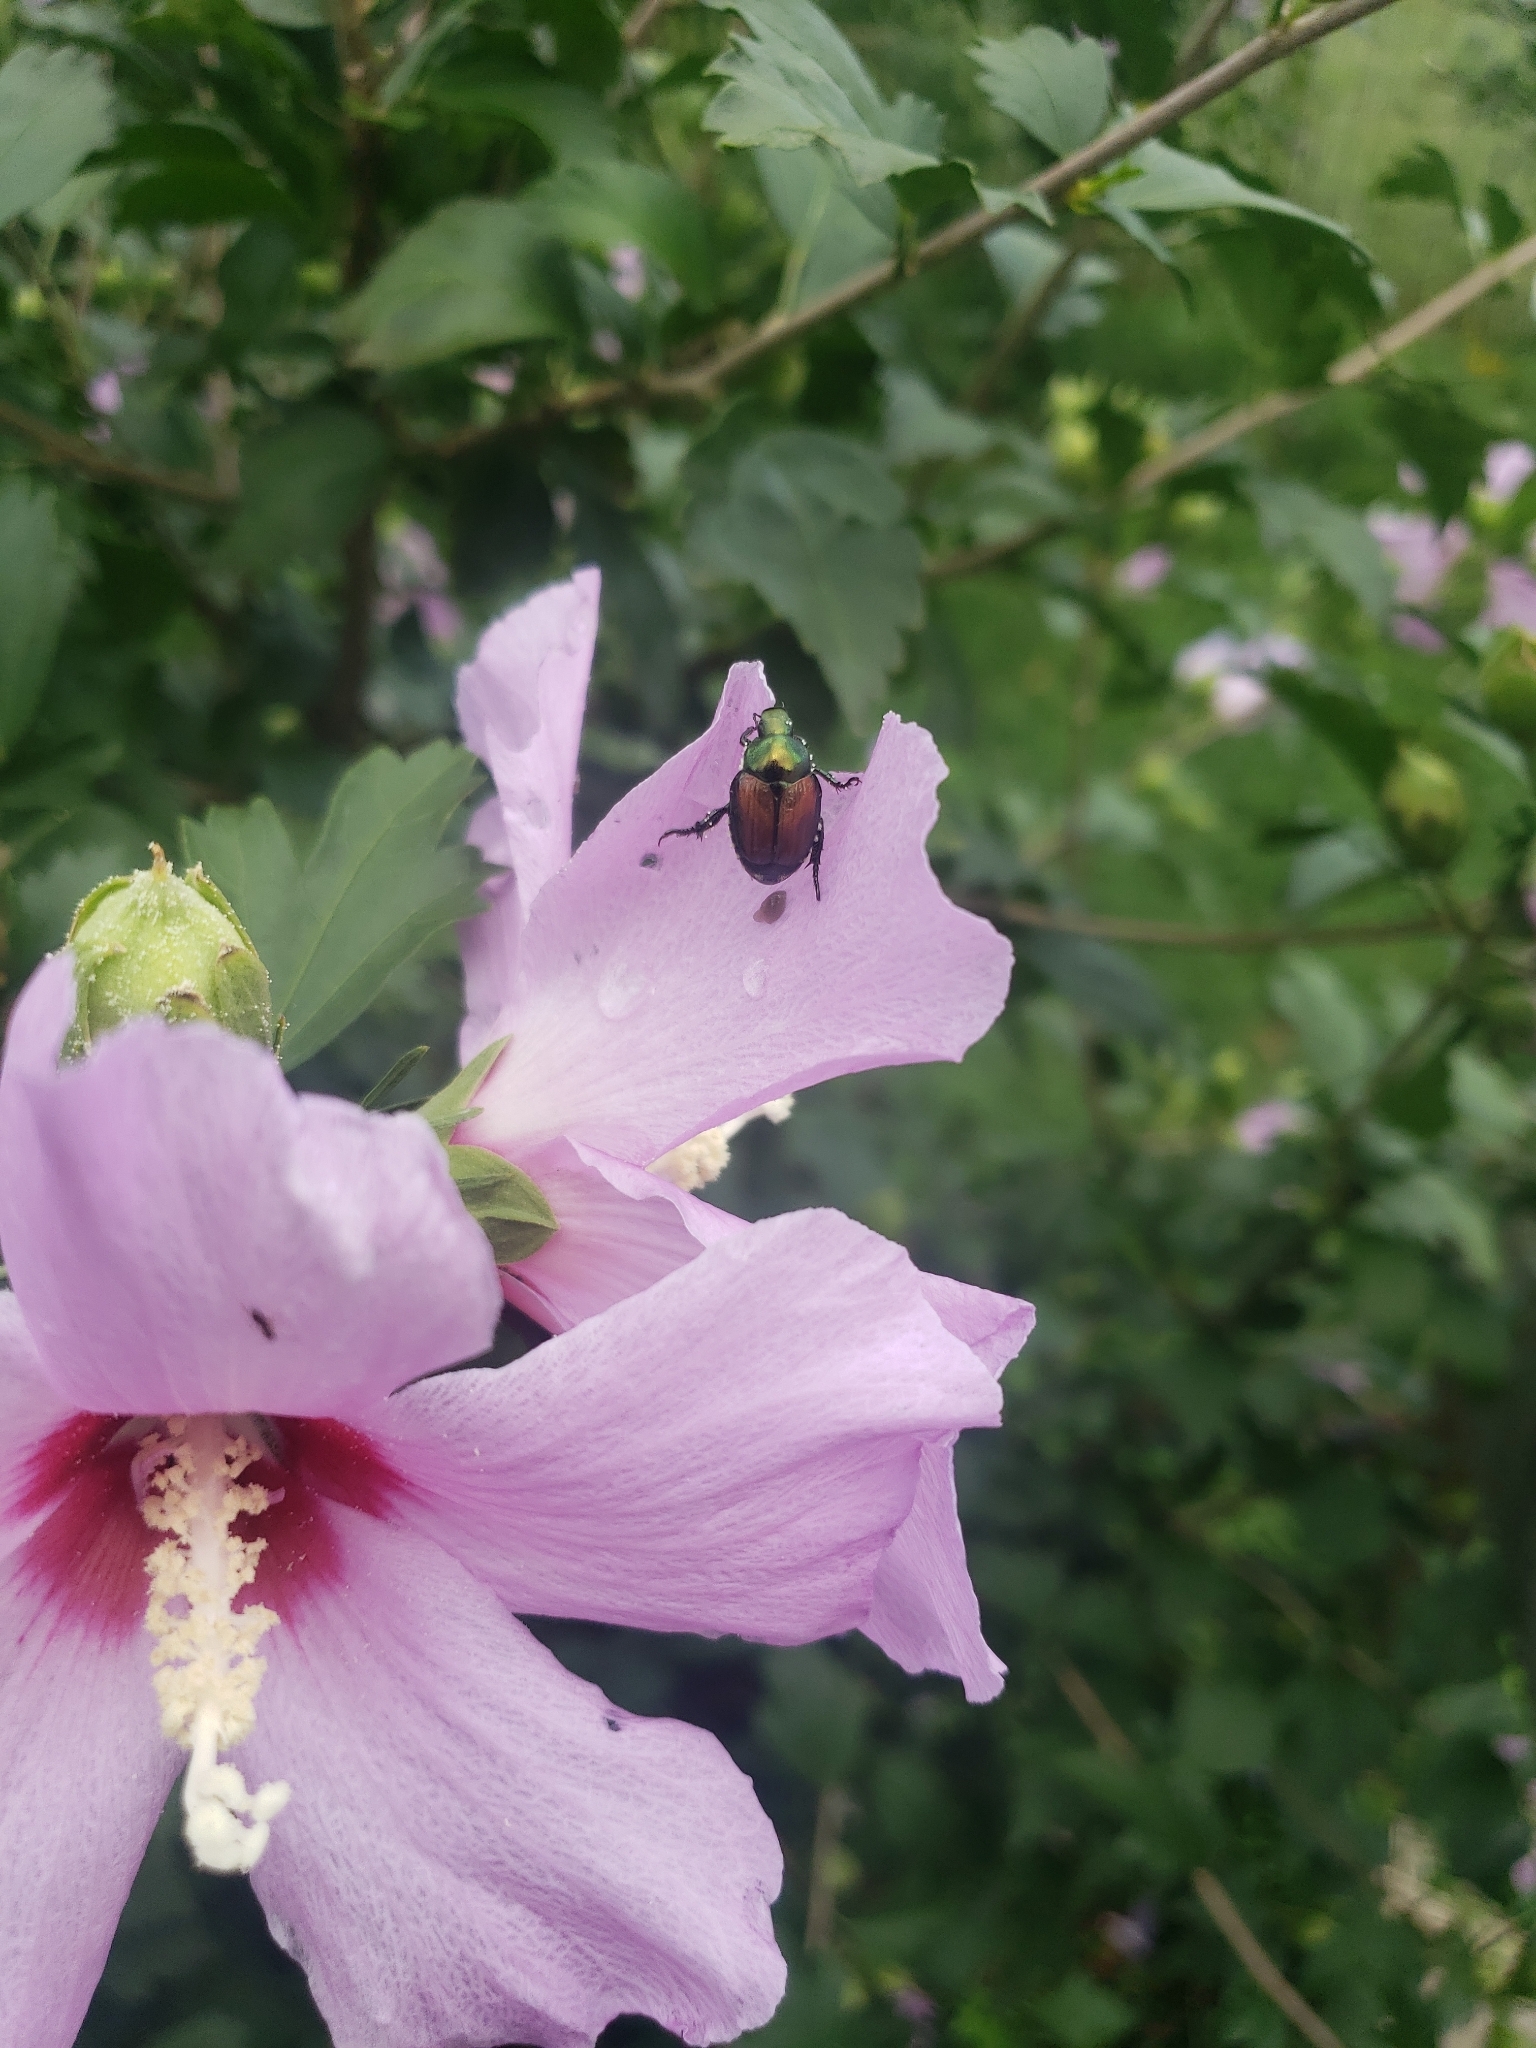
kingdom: Animalia
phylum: Arthropoda
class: Insecta
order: Coleoptera
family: Scarabaeidae
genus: Popillia
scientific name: Popillia japonica
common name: Japanese beetle
